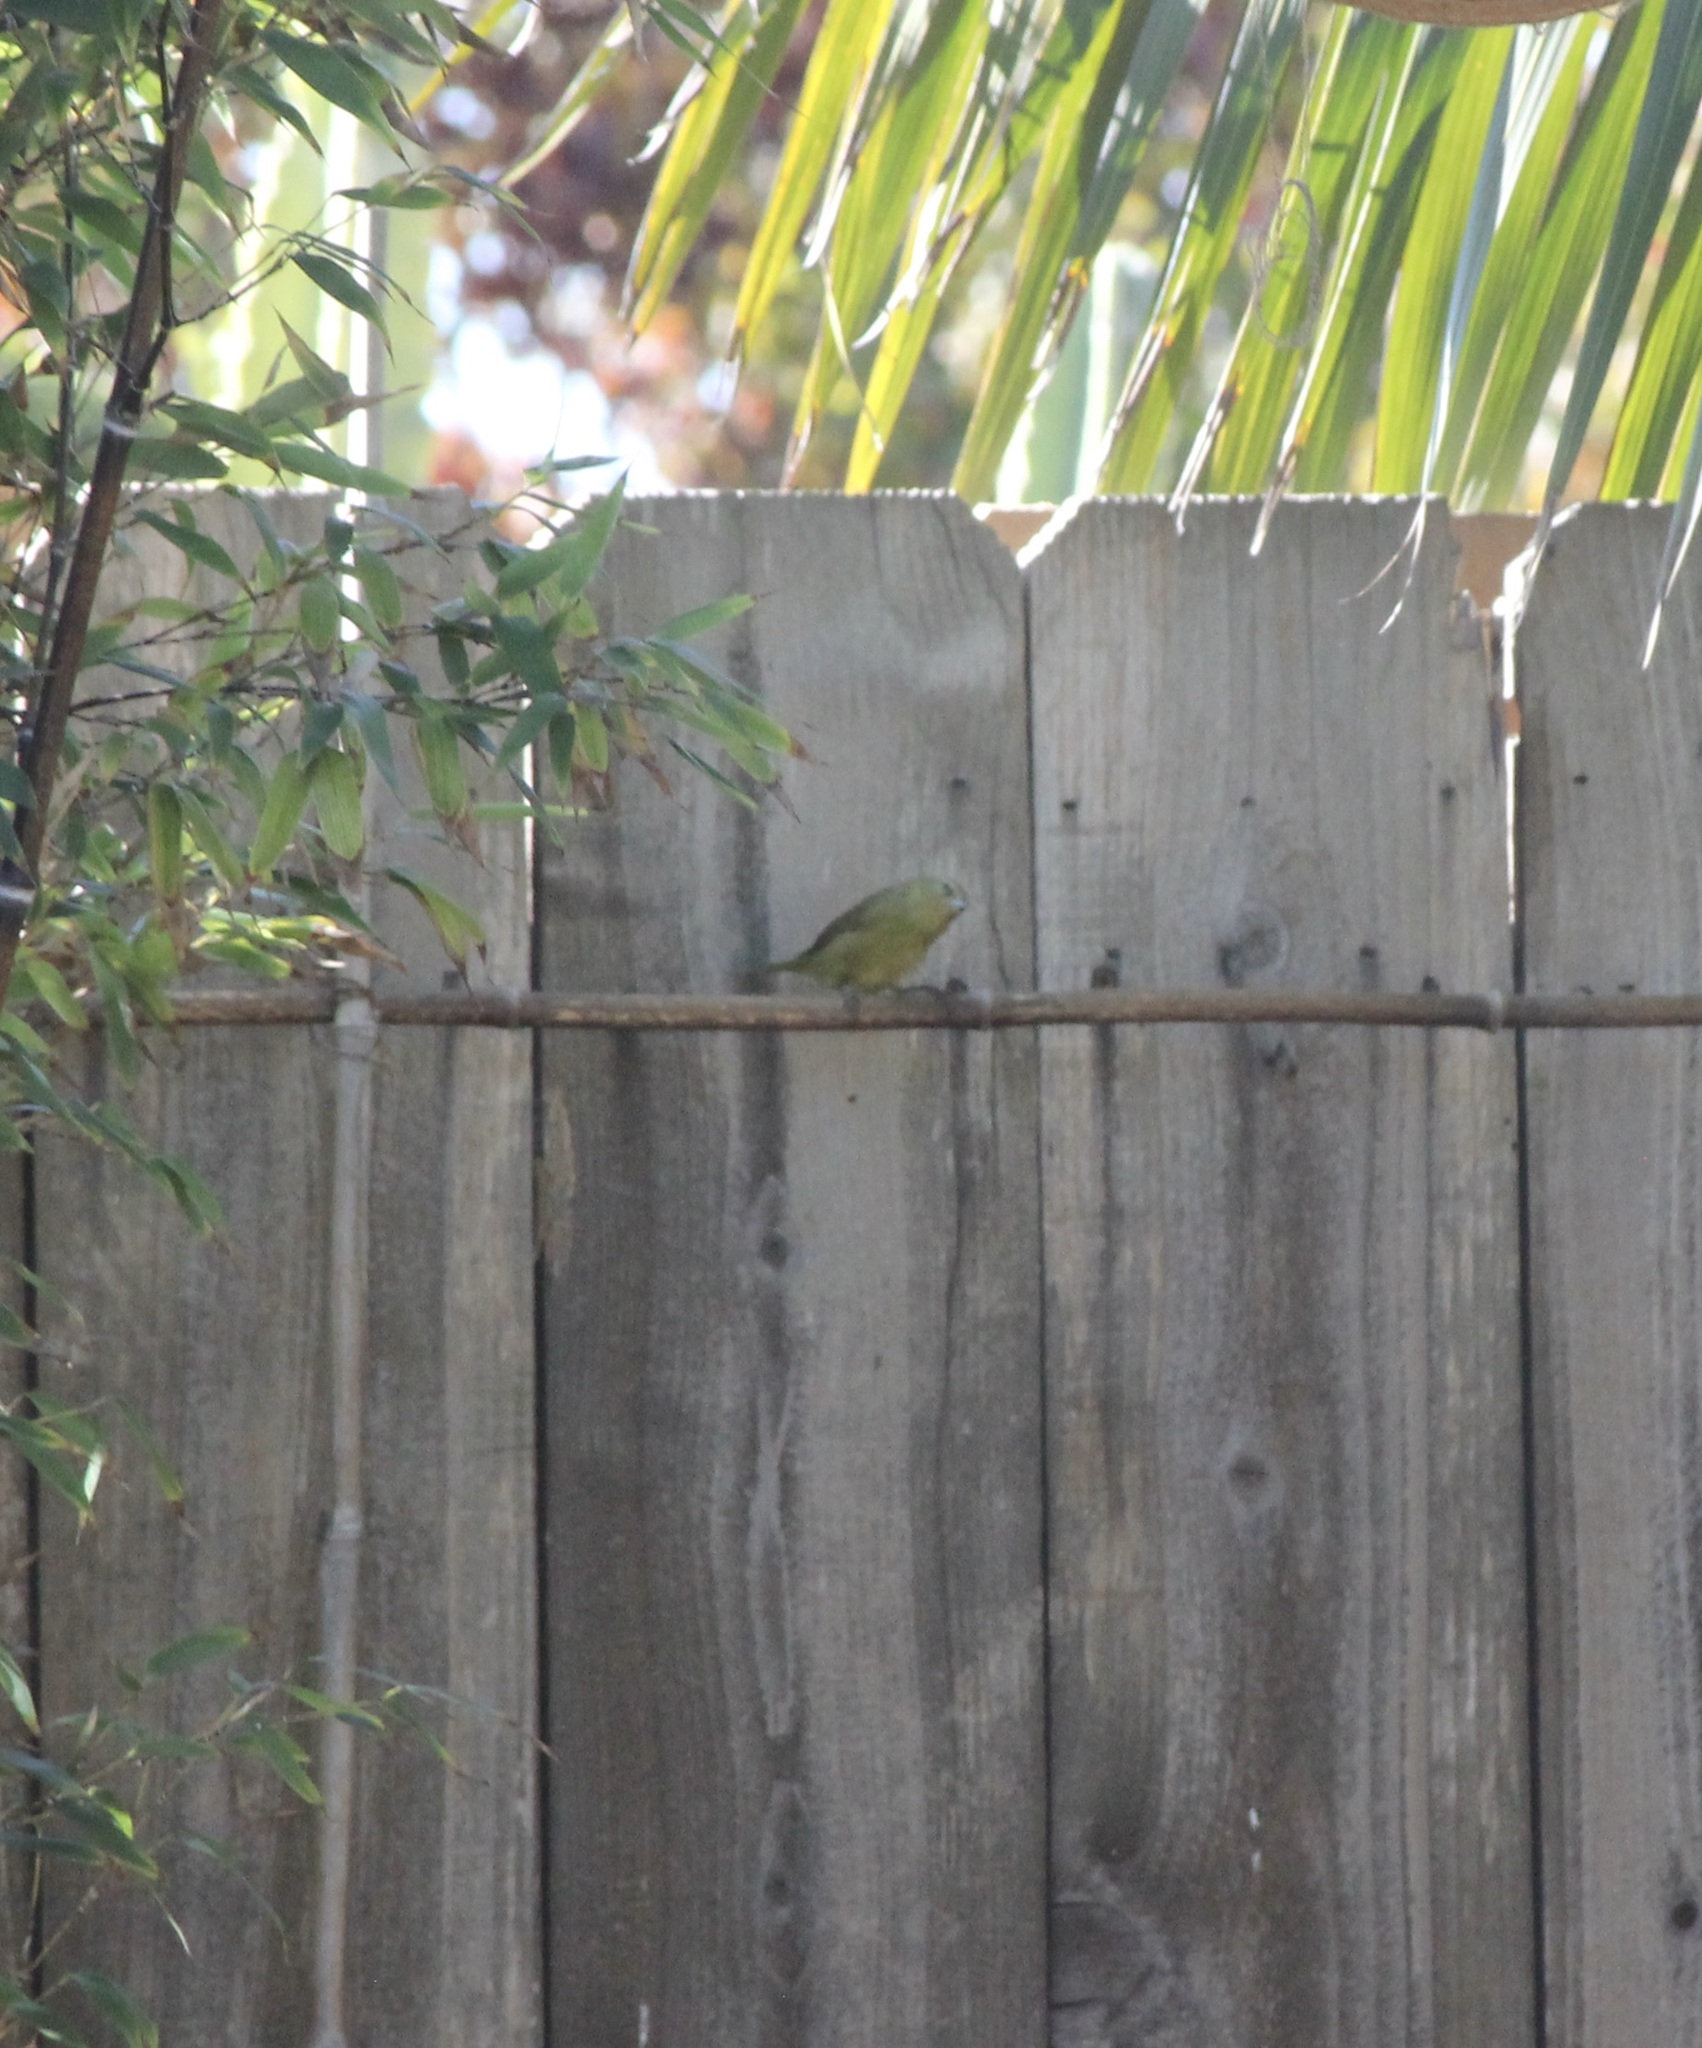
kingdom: Animalia
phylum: Chordata
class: Aves
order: Passeriformes
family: Parulidae
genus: Leiothlypis
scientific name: Leiothlypis celata
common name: Orange-crowned warbler
